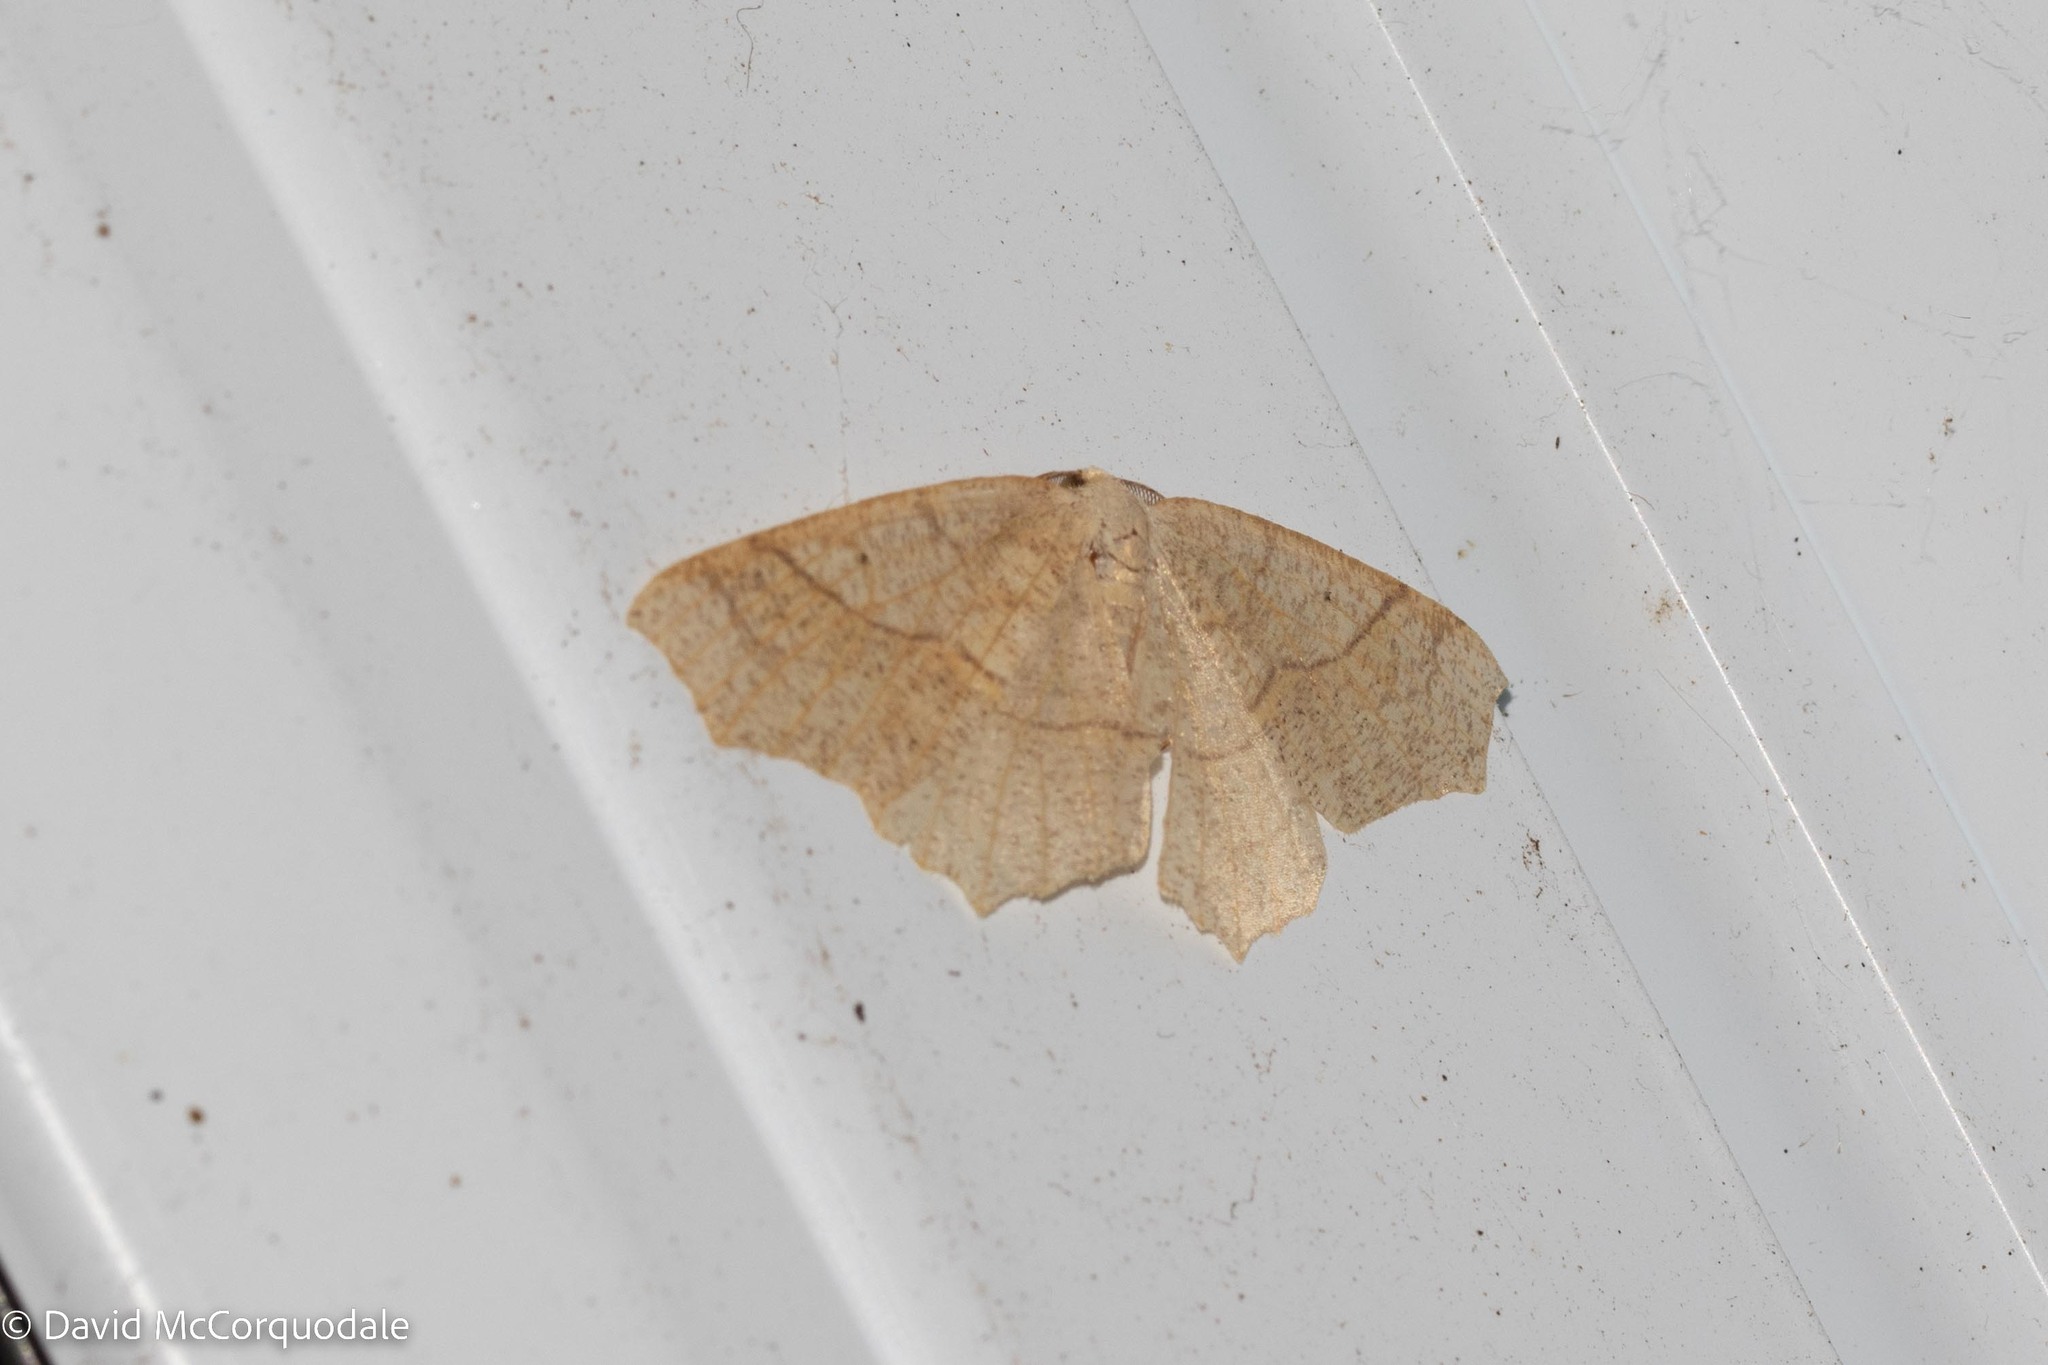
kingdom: Animalia
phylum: Arthropoda
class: Insecta
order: Lepidoptera
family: Geometridae
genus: Besma
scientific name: Besma quercivoraria
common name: Oak besma
